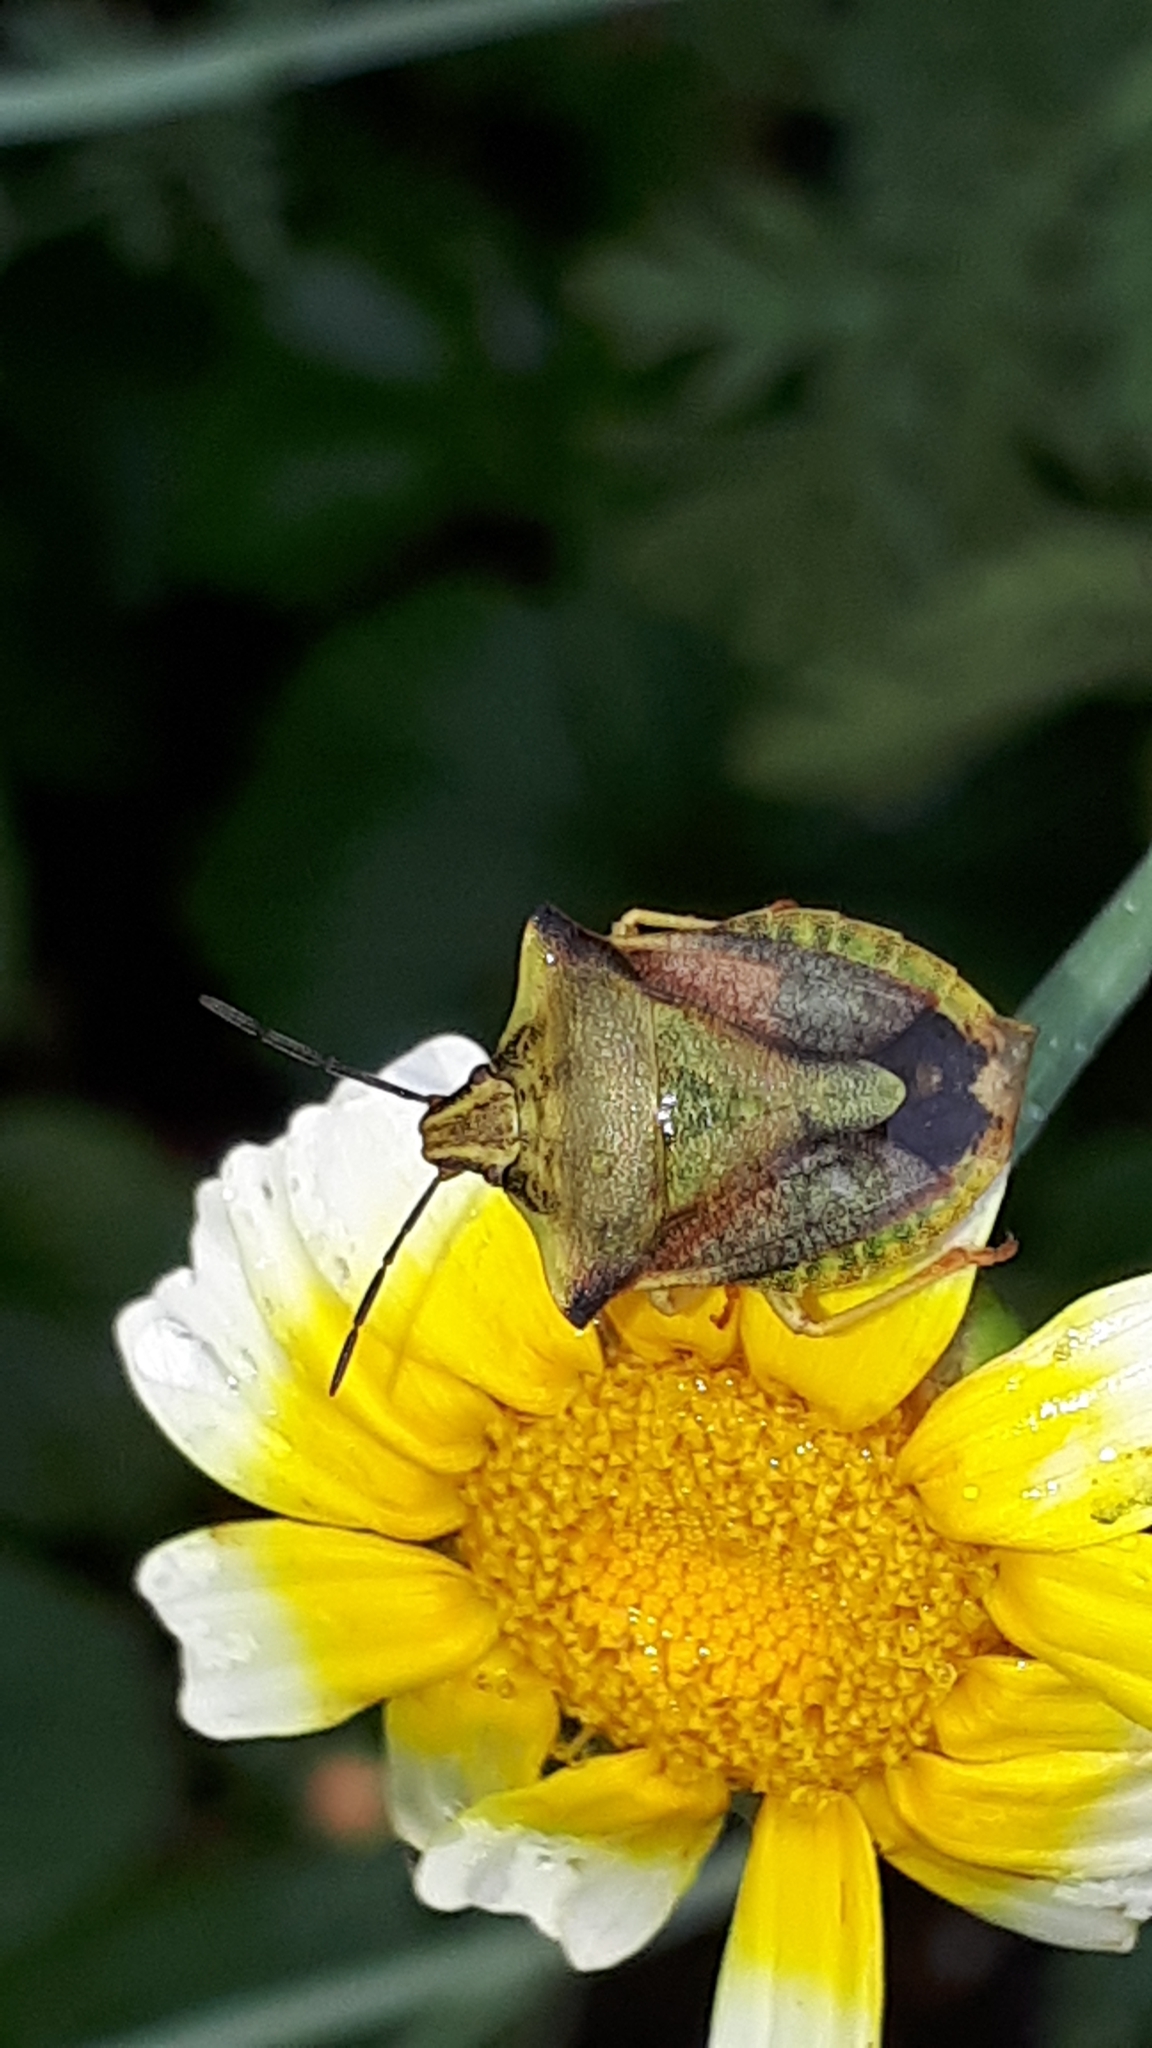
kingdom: Animalia
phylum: Arthropoda
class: Insecta
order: Hemiptera
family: Pentatomidae
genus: Carpocoris
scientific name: Carpocoris fuscispinus
